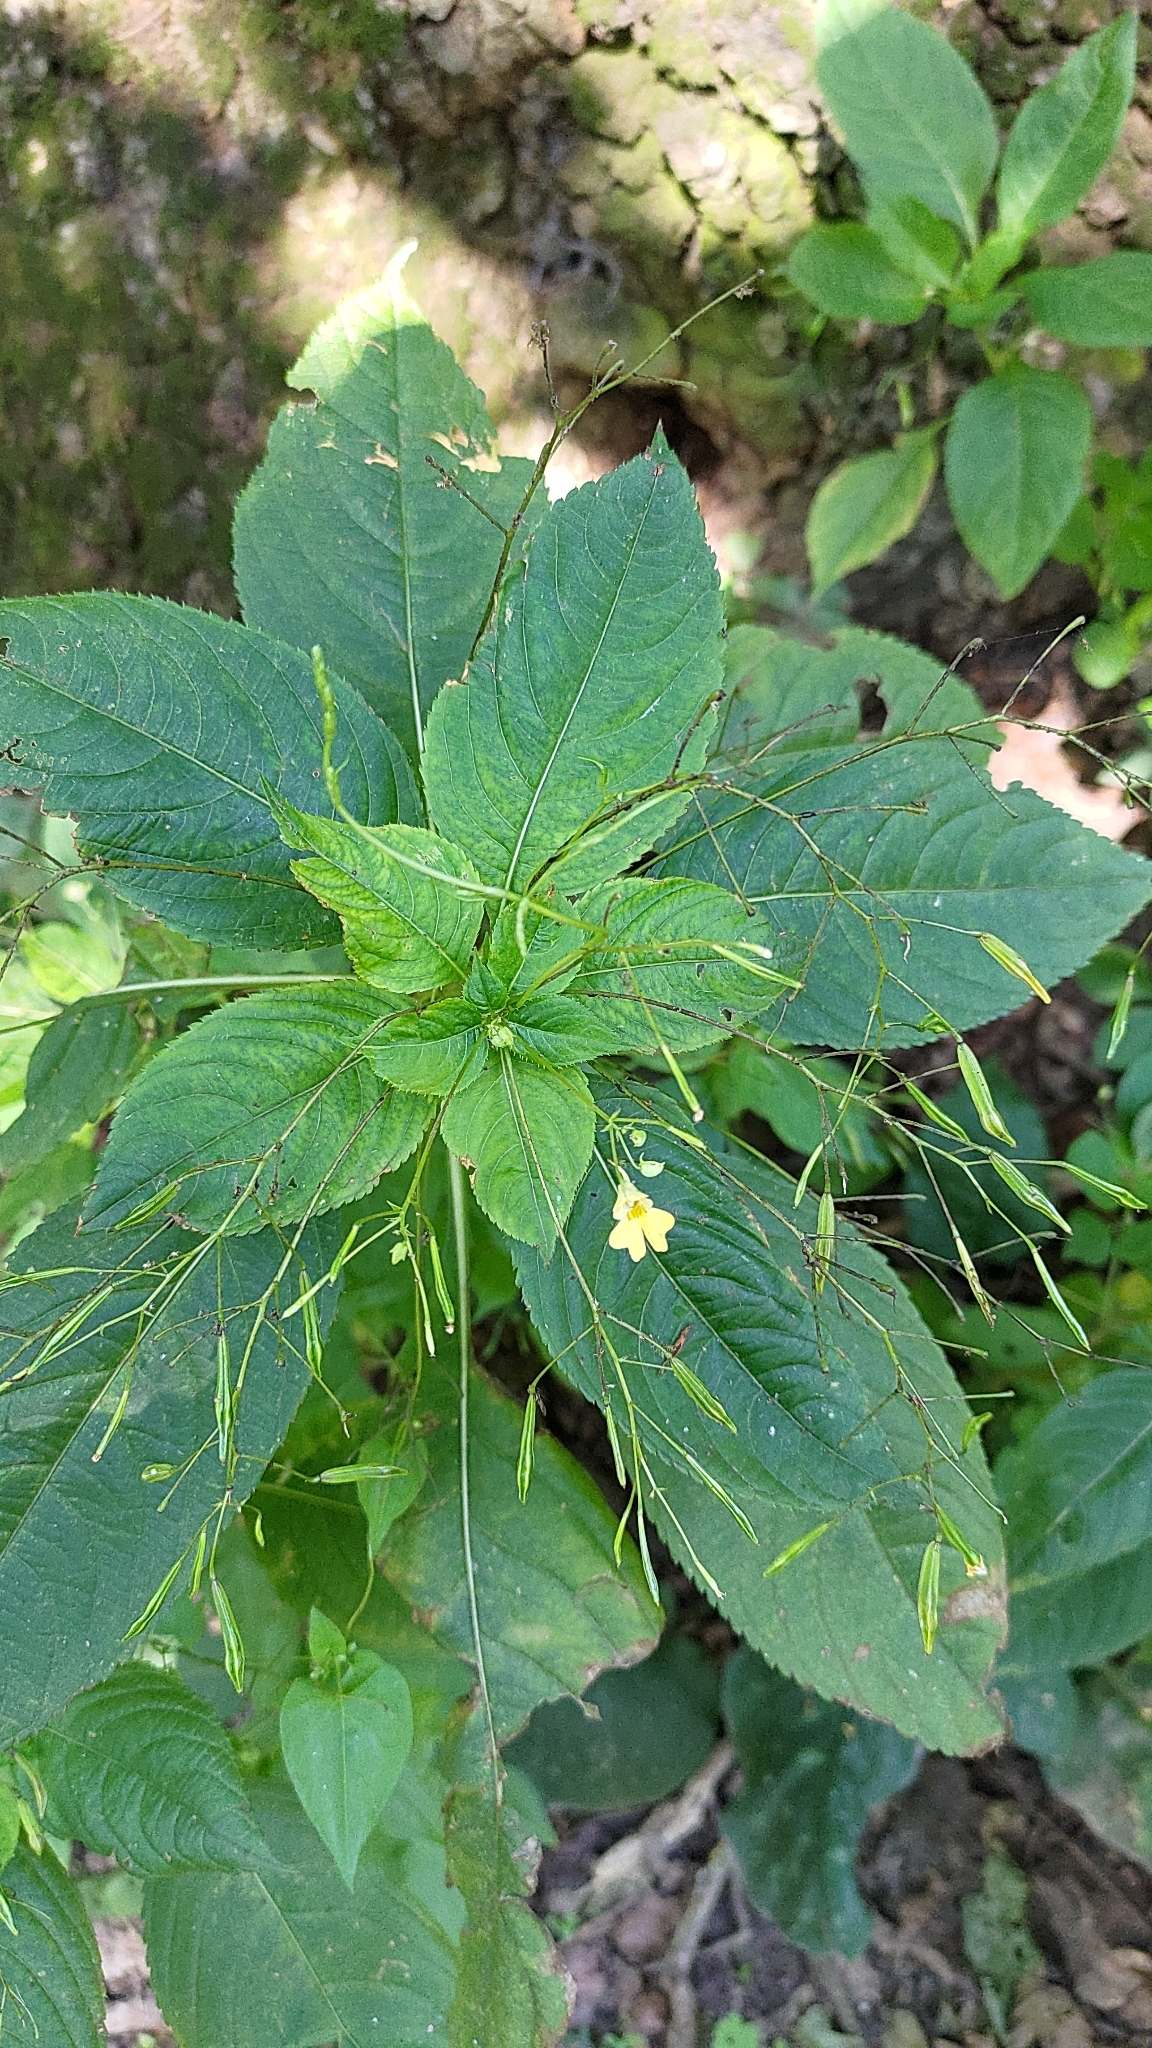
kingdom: Plantae
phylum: Tracheophyta
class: Magnoliopsida
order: Ericales
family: Balsaminaceae
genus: Impatiens
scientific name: Impatiens parviflora
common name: Small balsam
